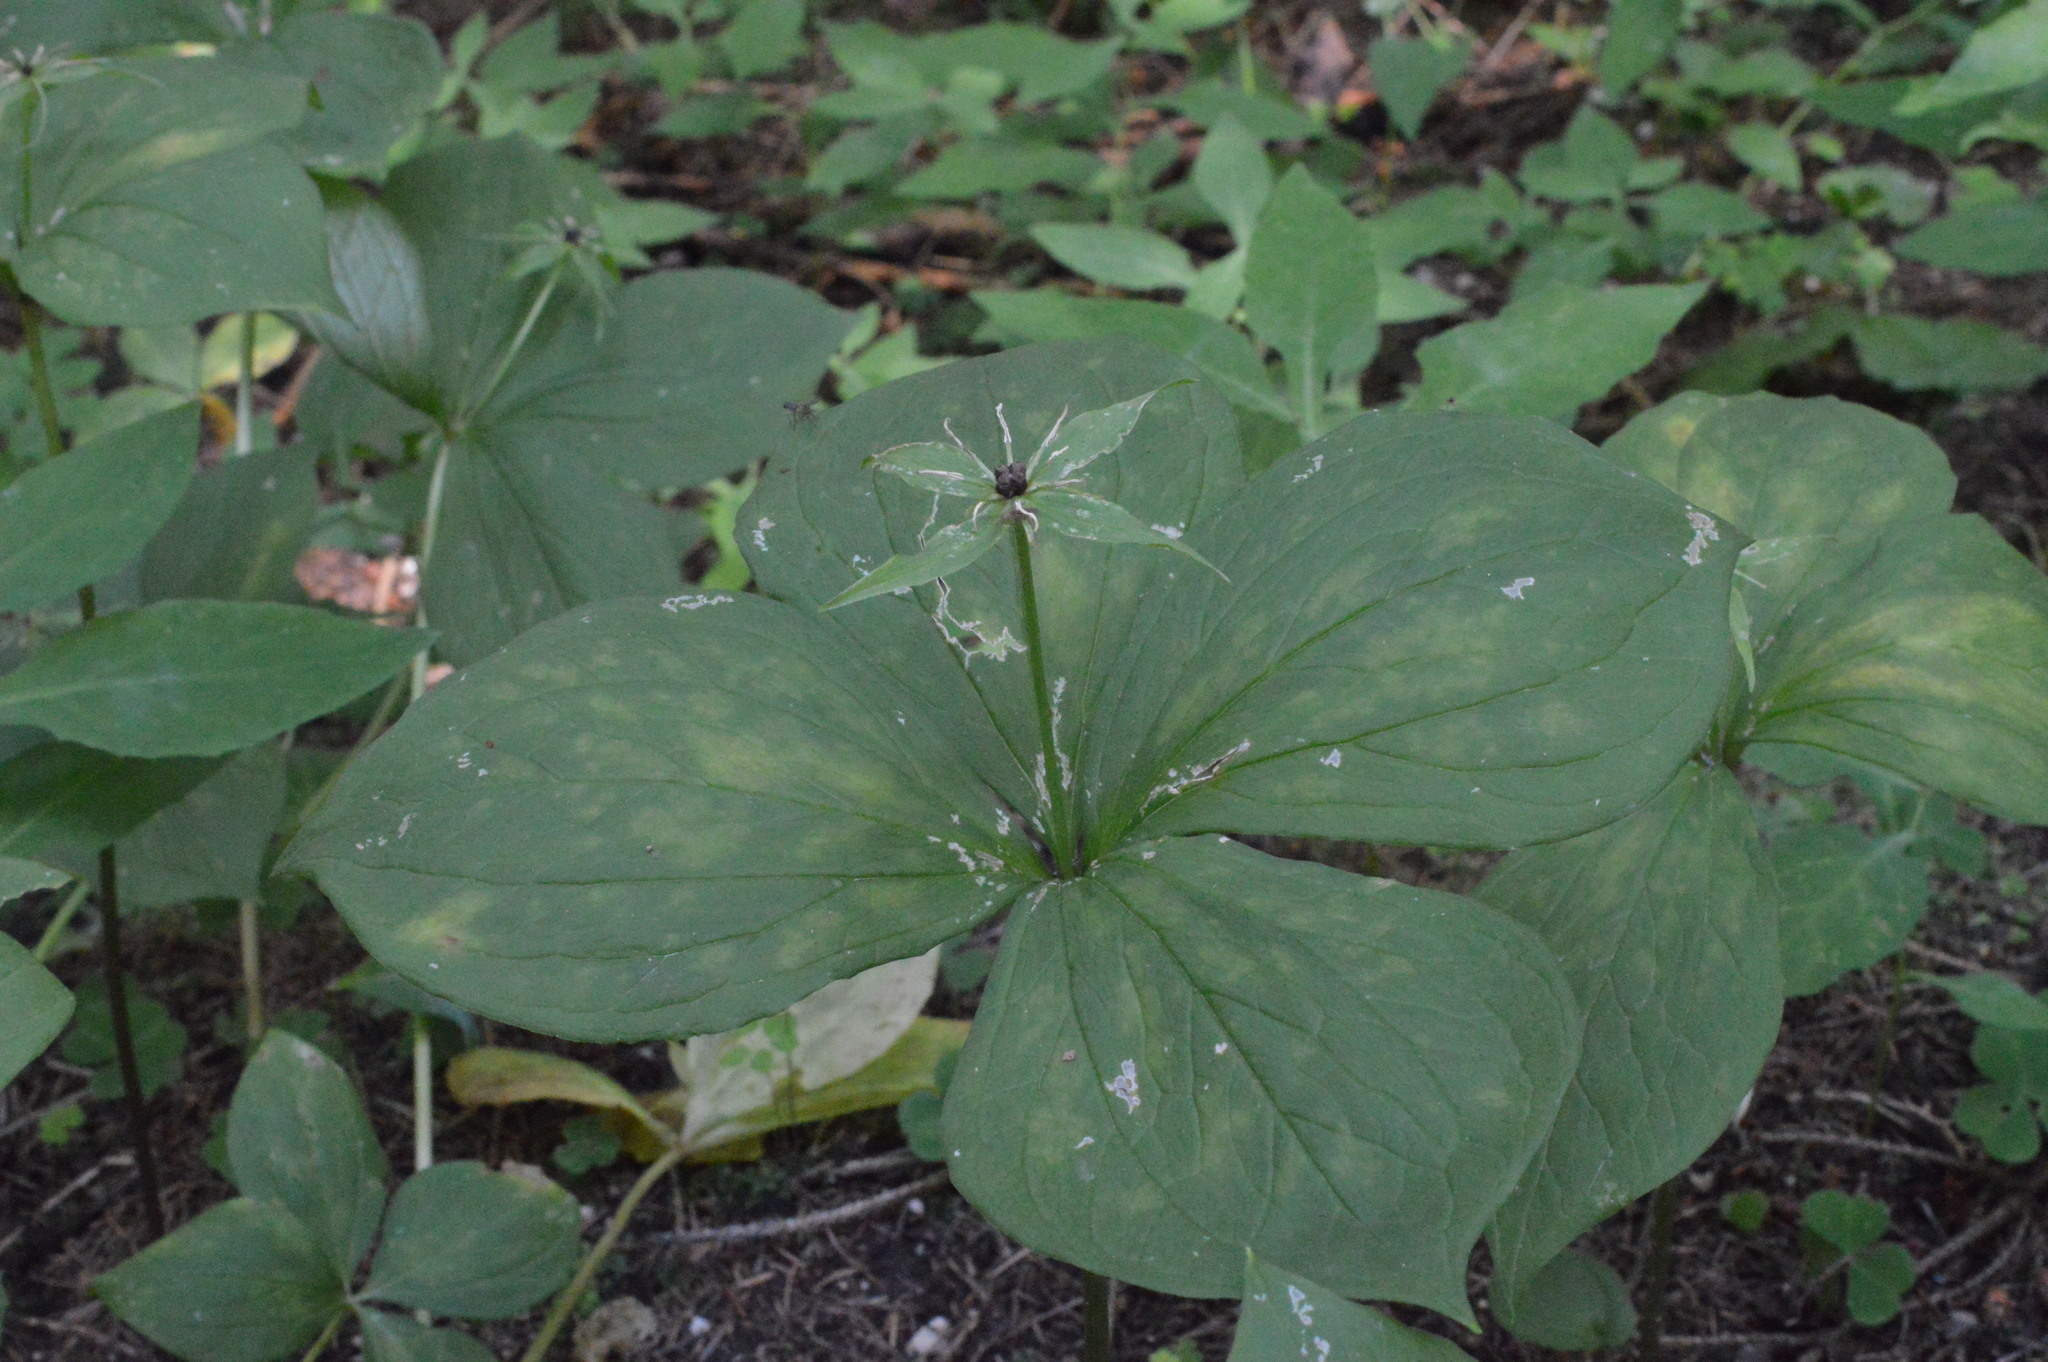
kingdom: Plantae
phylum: Tracheophyta
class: Liliopsida
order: Liliales
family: Melanthiaceae
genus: Paris
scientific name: Paris quadrifolia
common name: Herb-paris
